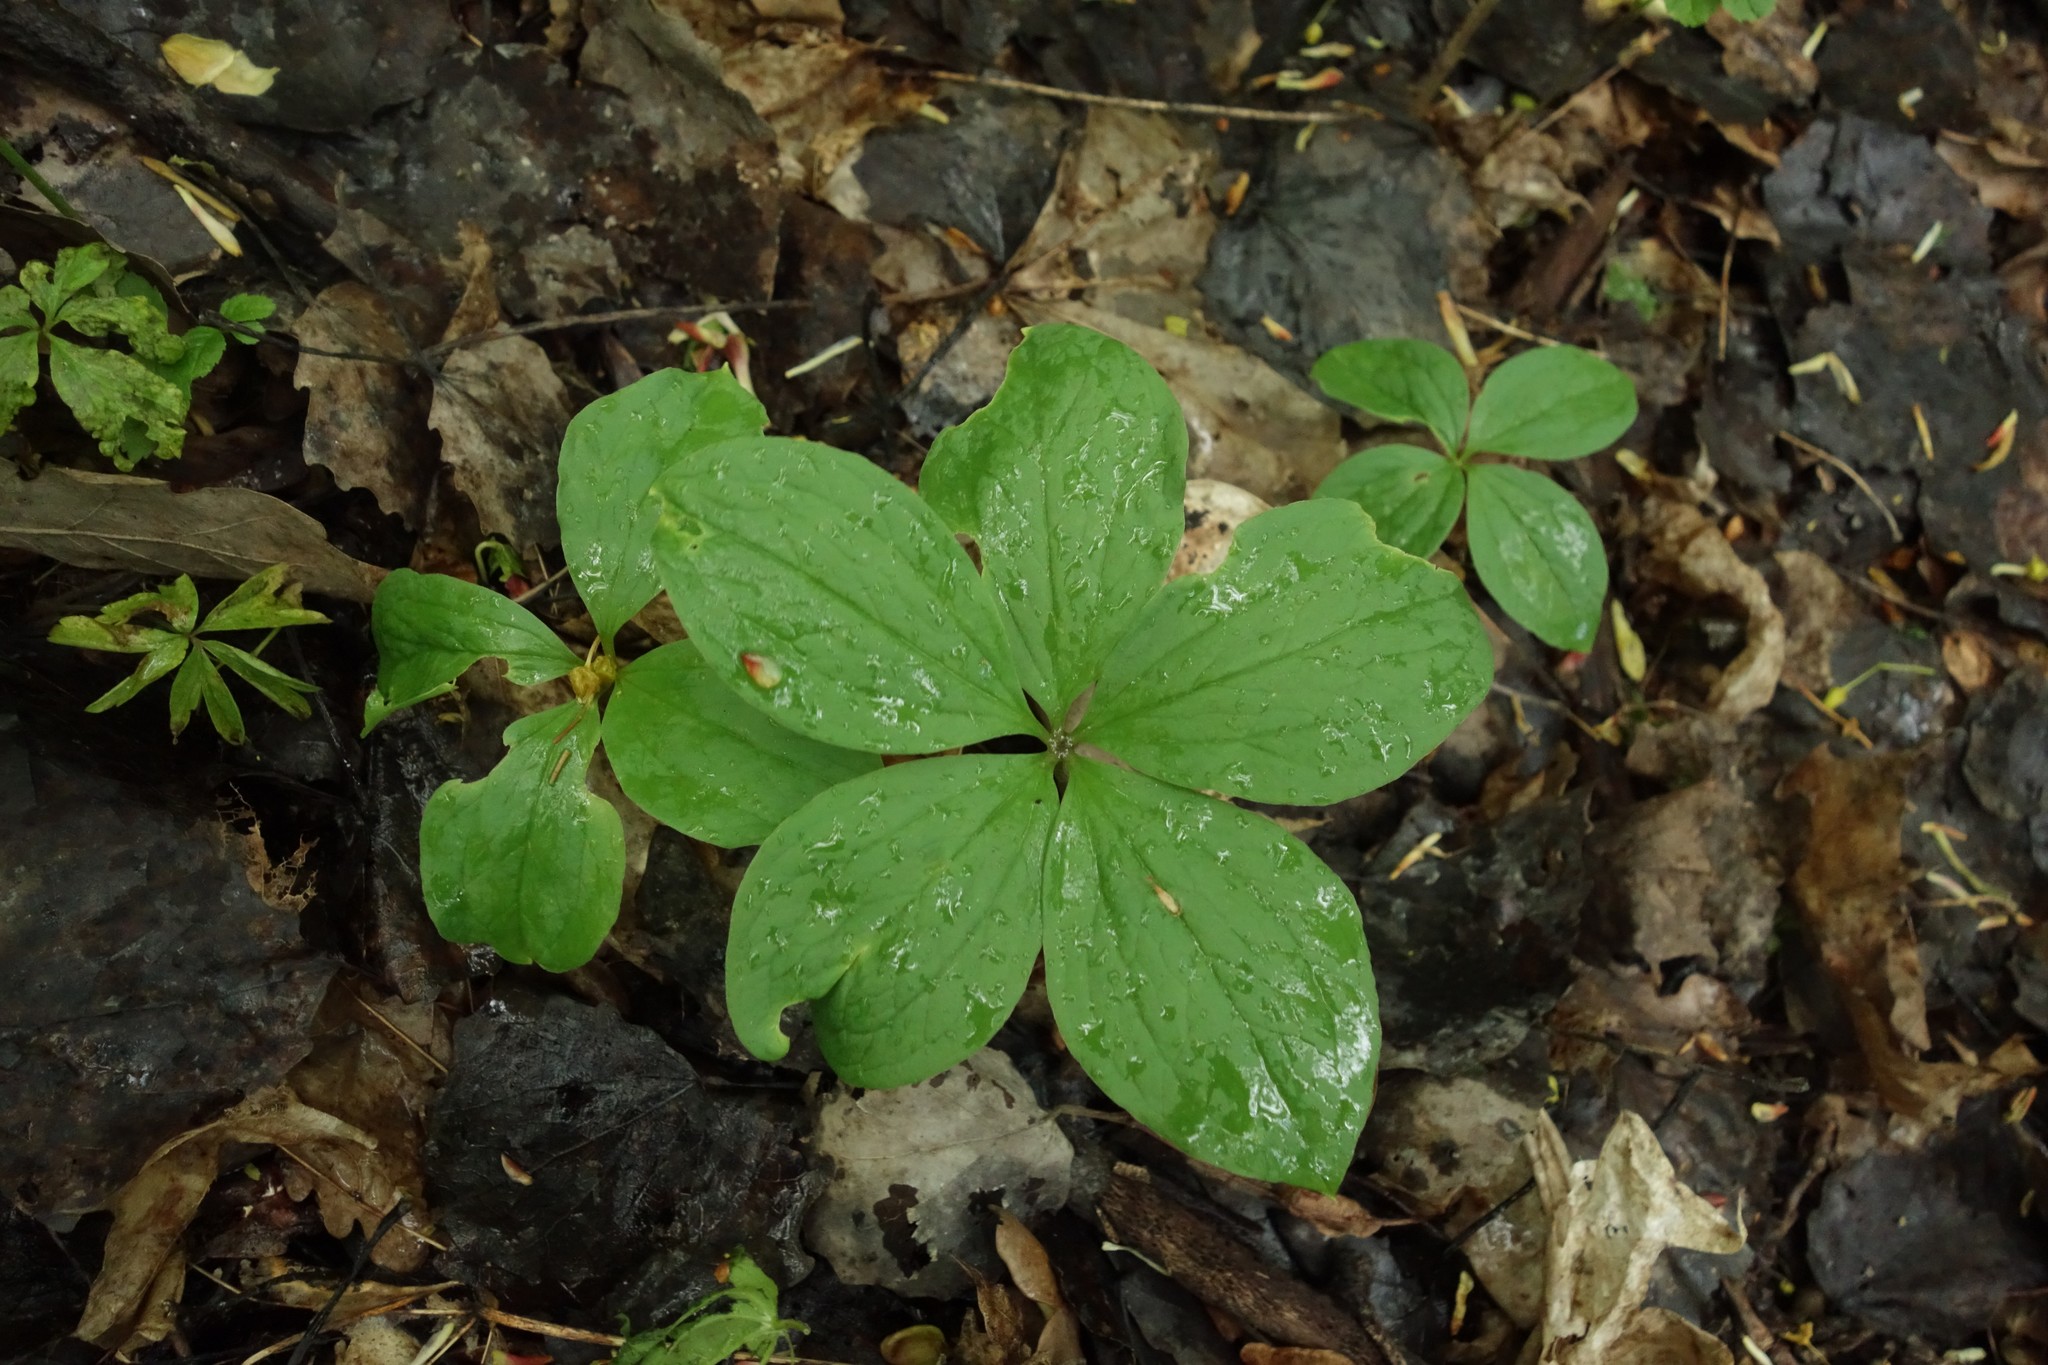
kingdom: Plantae
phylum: Tracheophyta
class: Liliopsida
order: Liliales
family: Melanthiaceae
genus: Paris
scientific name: Paris quadrifolia
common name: Herb-paris
